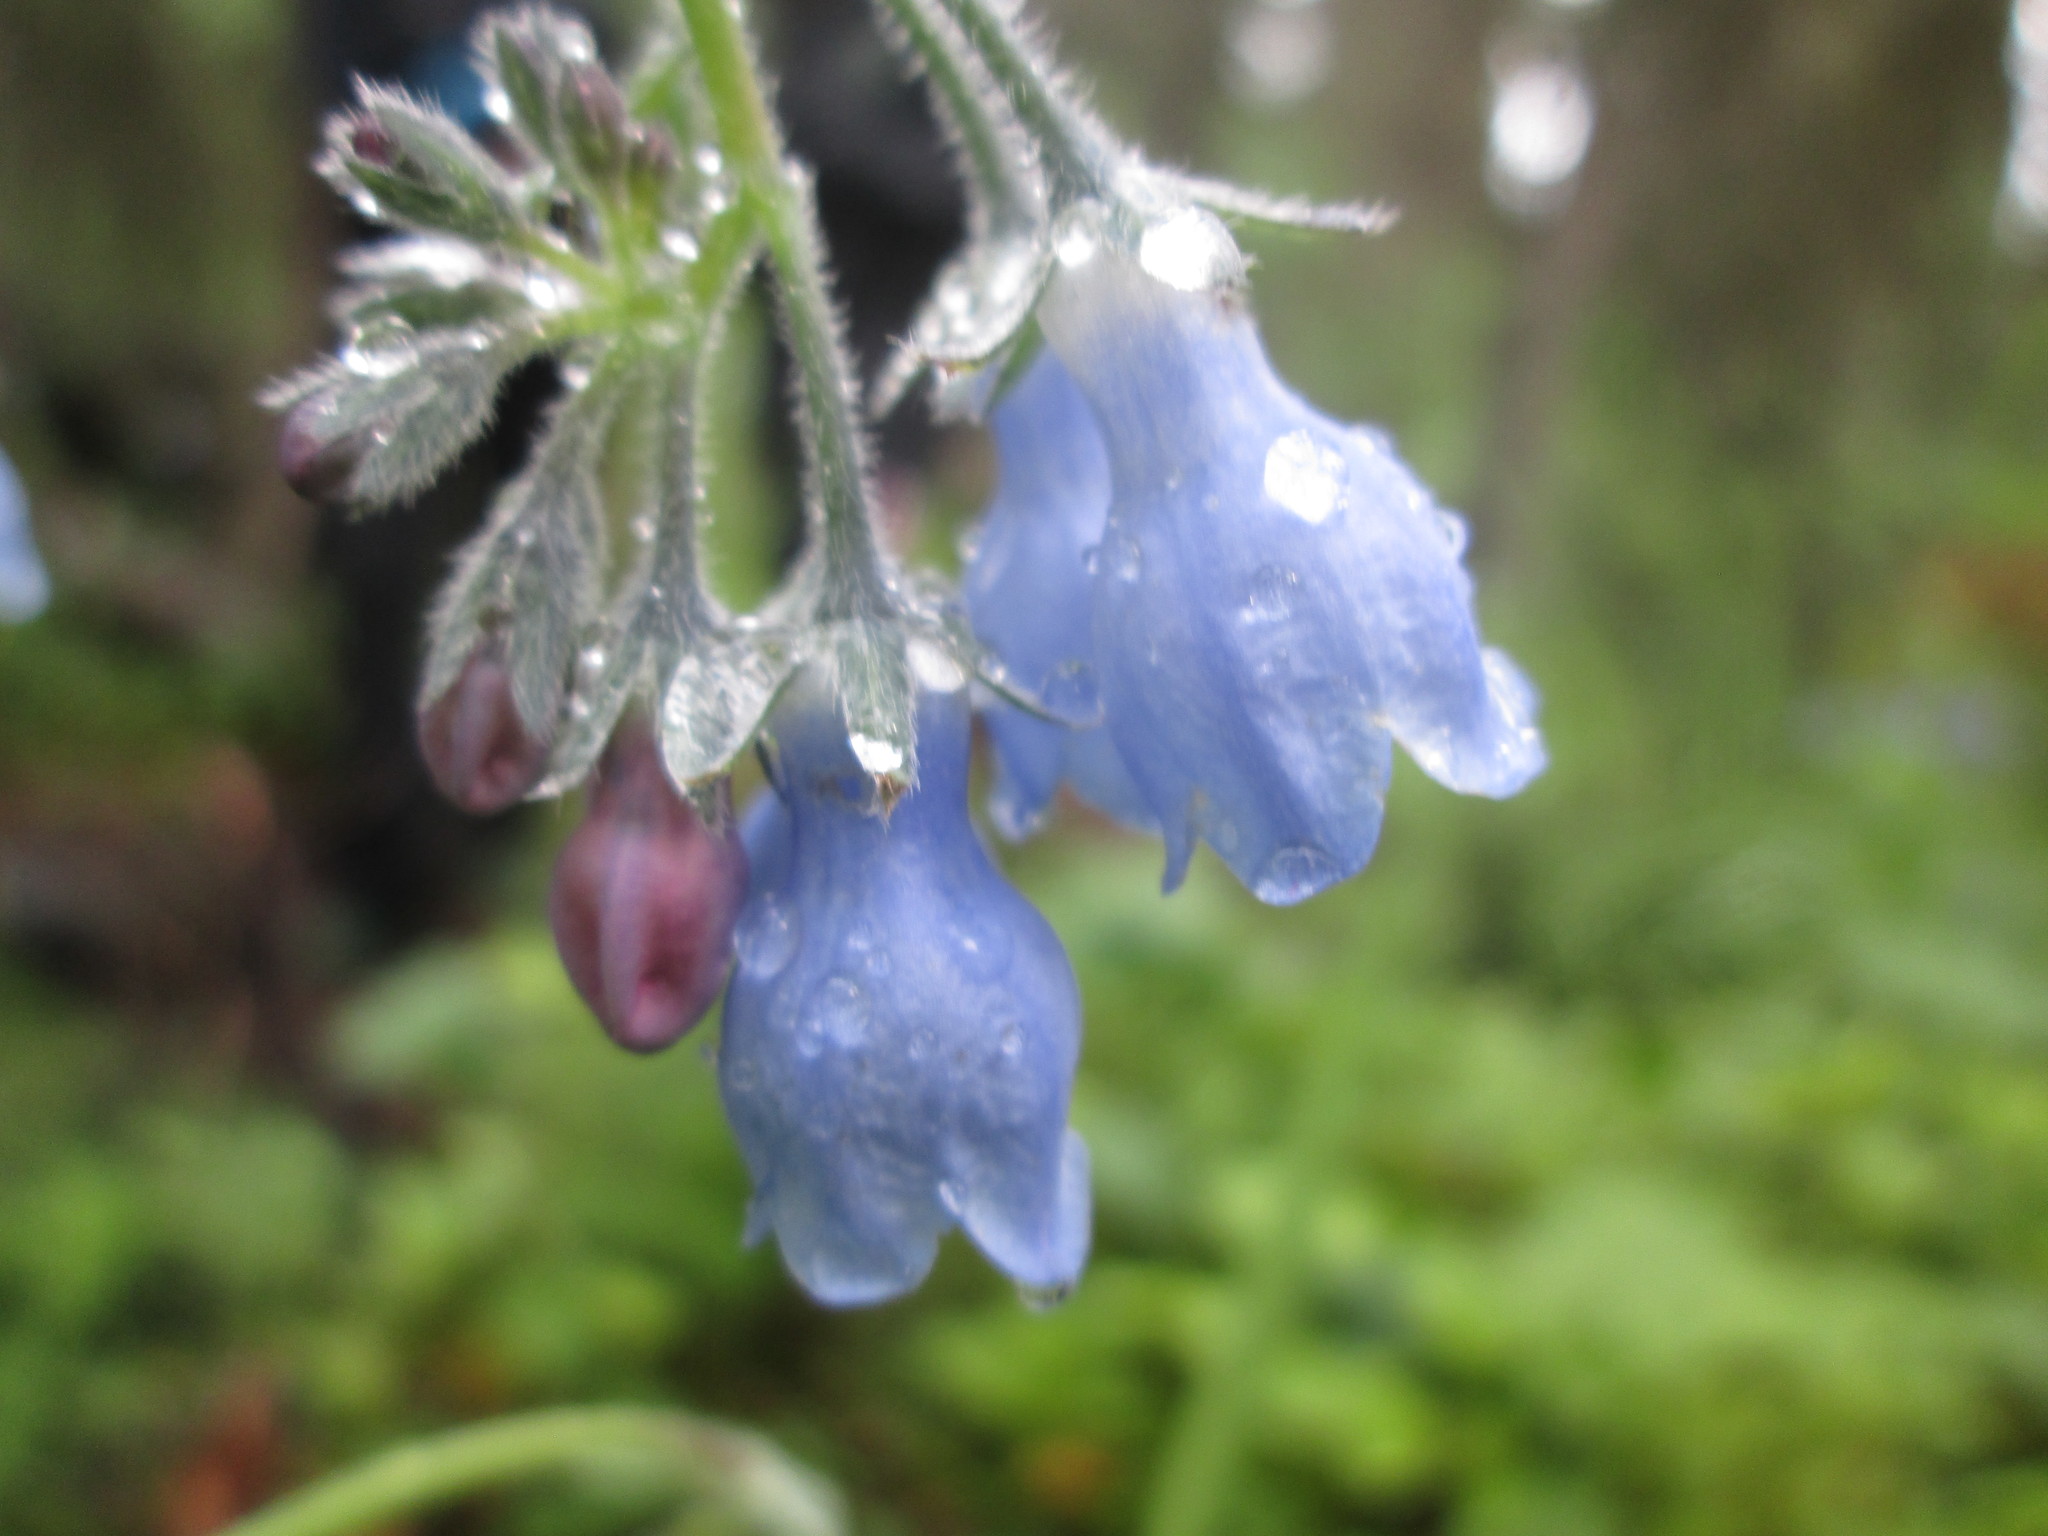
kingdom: Plantae
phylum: Tracheophyta
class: Magnoliopsida
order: Boraginales
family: Boraginaceae
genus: Mertensia
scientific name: Mertensia paniculata
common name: Panicled bluebells
